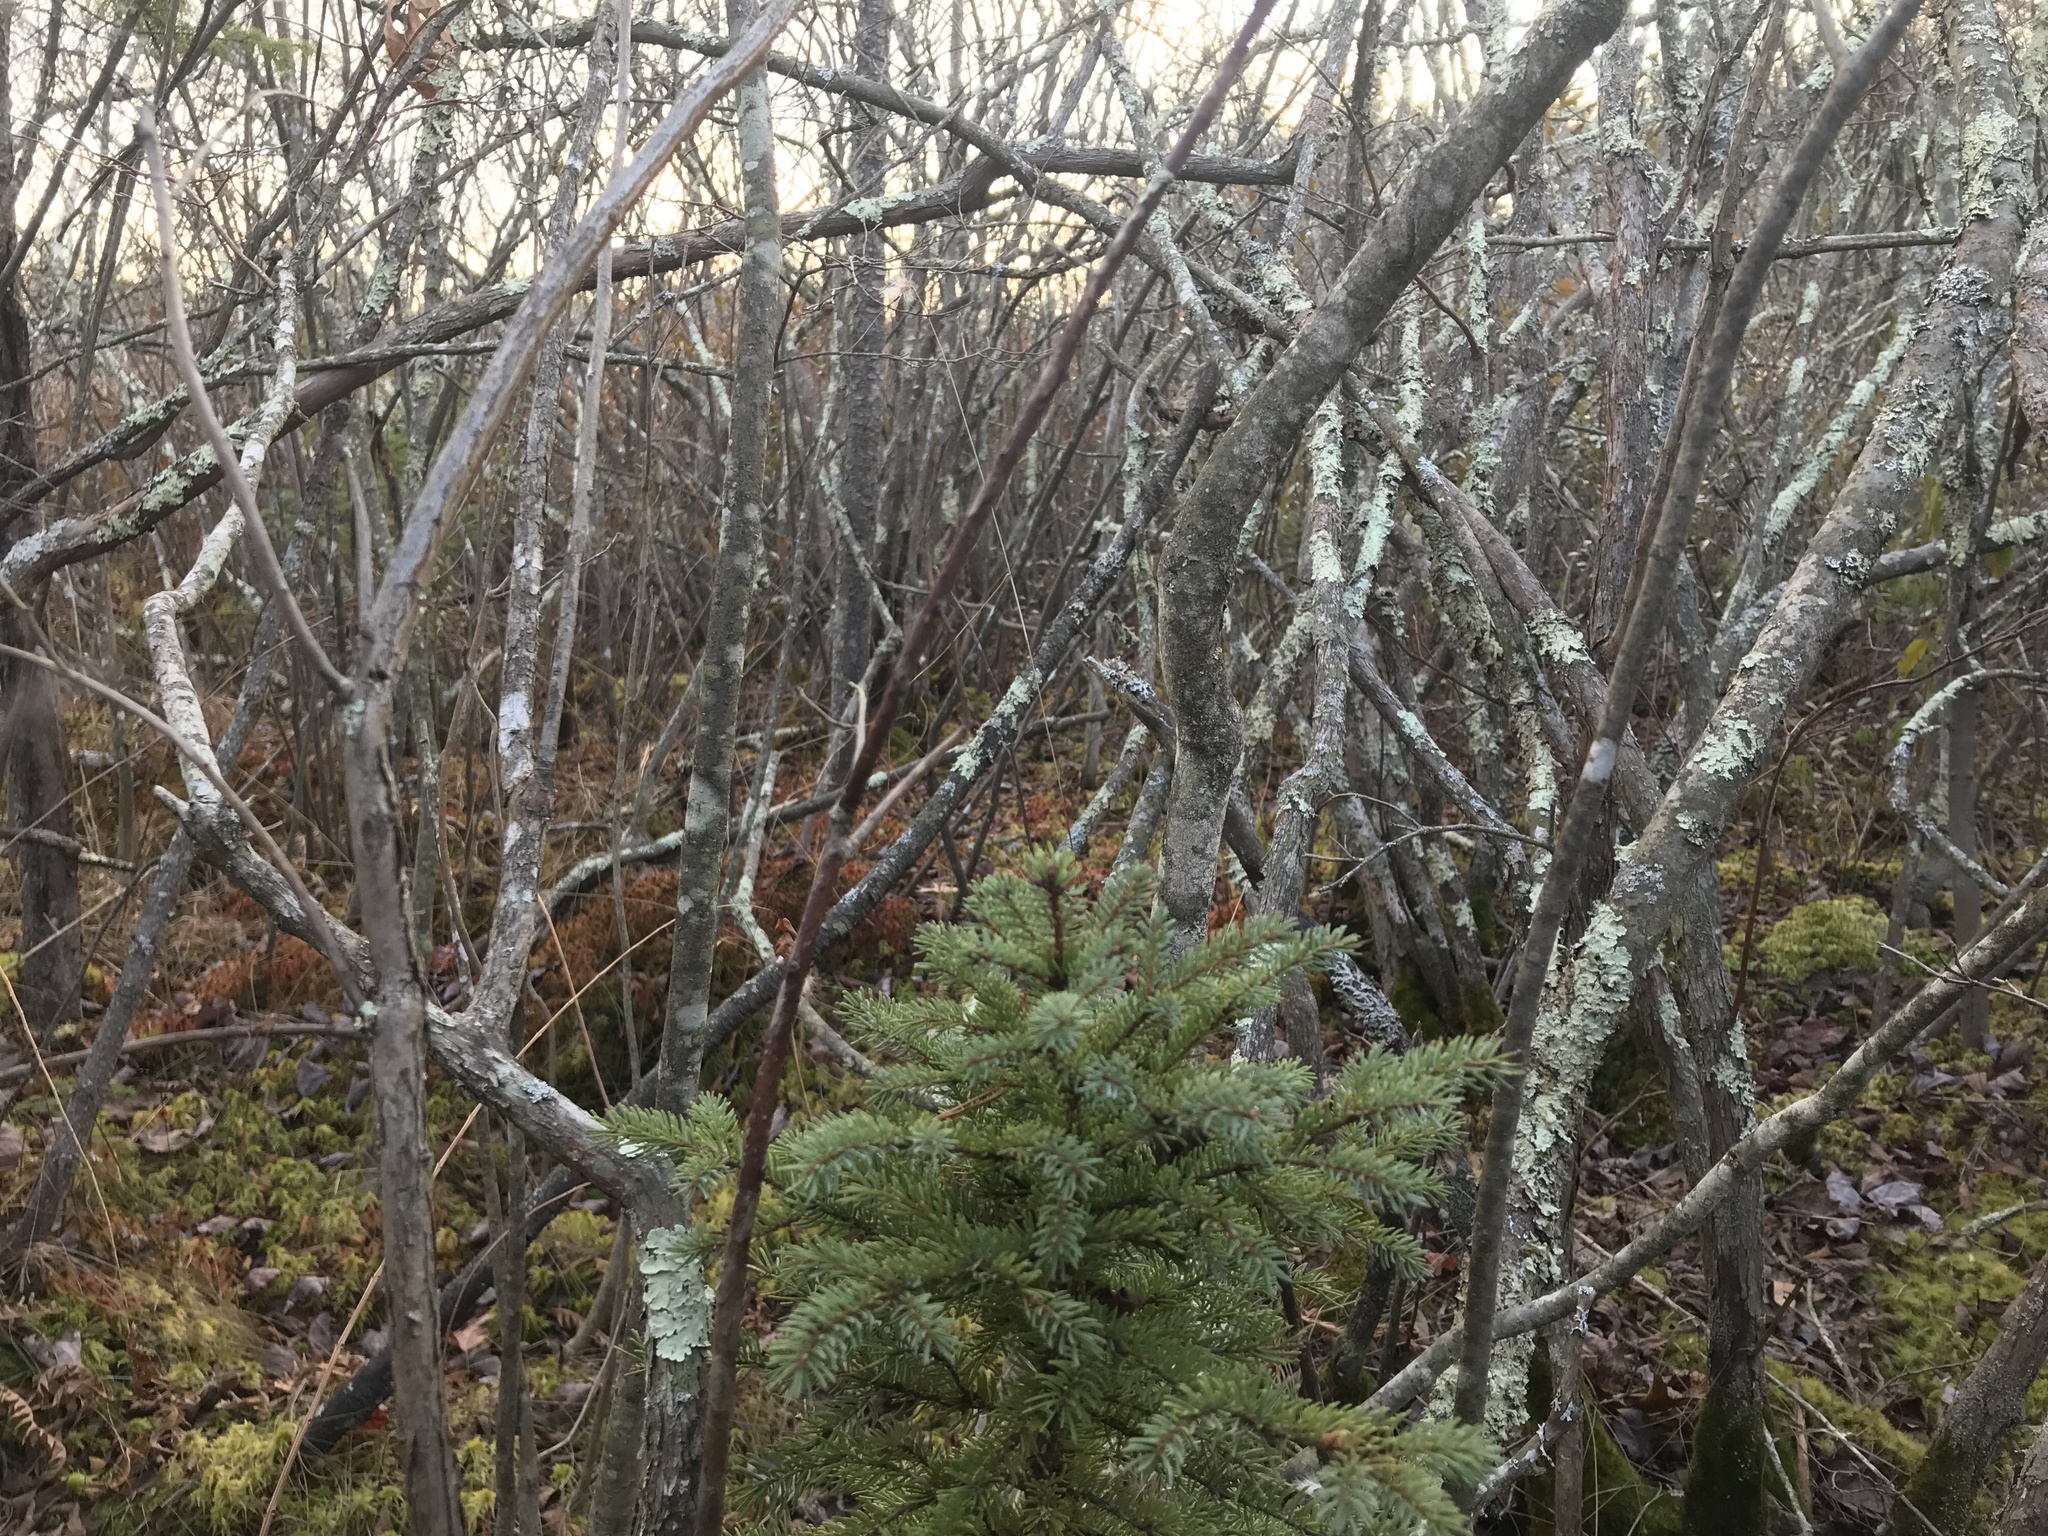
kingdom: Plantae
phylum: Tracheophyta
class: Pinopsida
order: Pinales
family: Pinaceae
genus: Picea
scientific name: Picea mariana
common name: Black spruce
